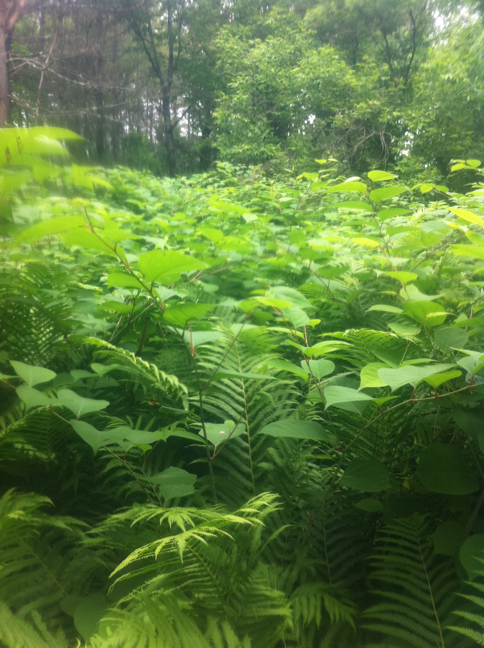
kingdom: Plantae
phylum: Tracheophyta
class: Magnoliopsida
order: Caryophyllales
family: Polygonaceae
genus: Reynoutria
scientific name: Reynoutria japonica
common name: Japanese knotweed
